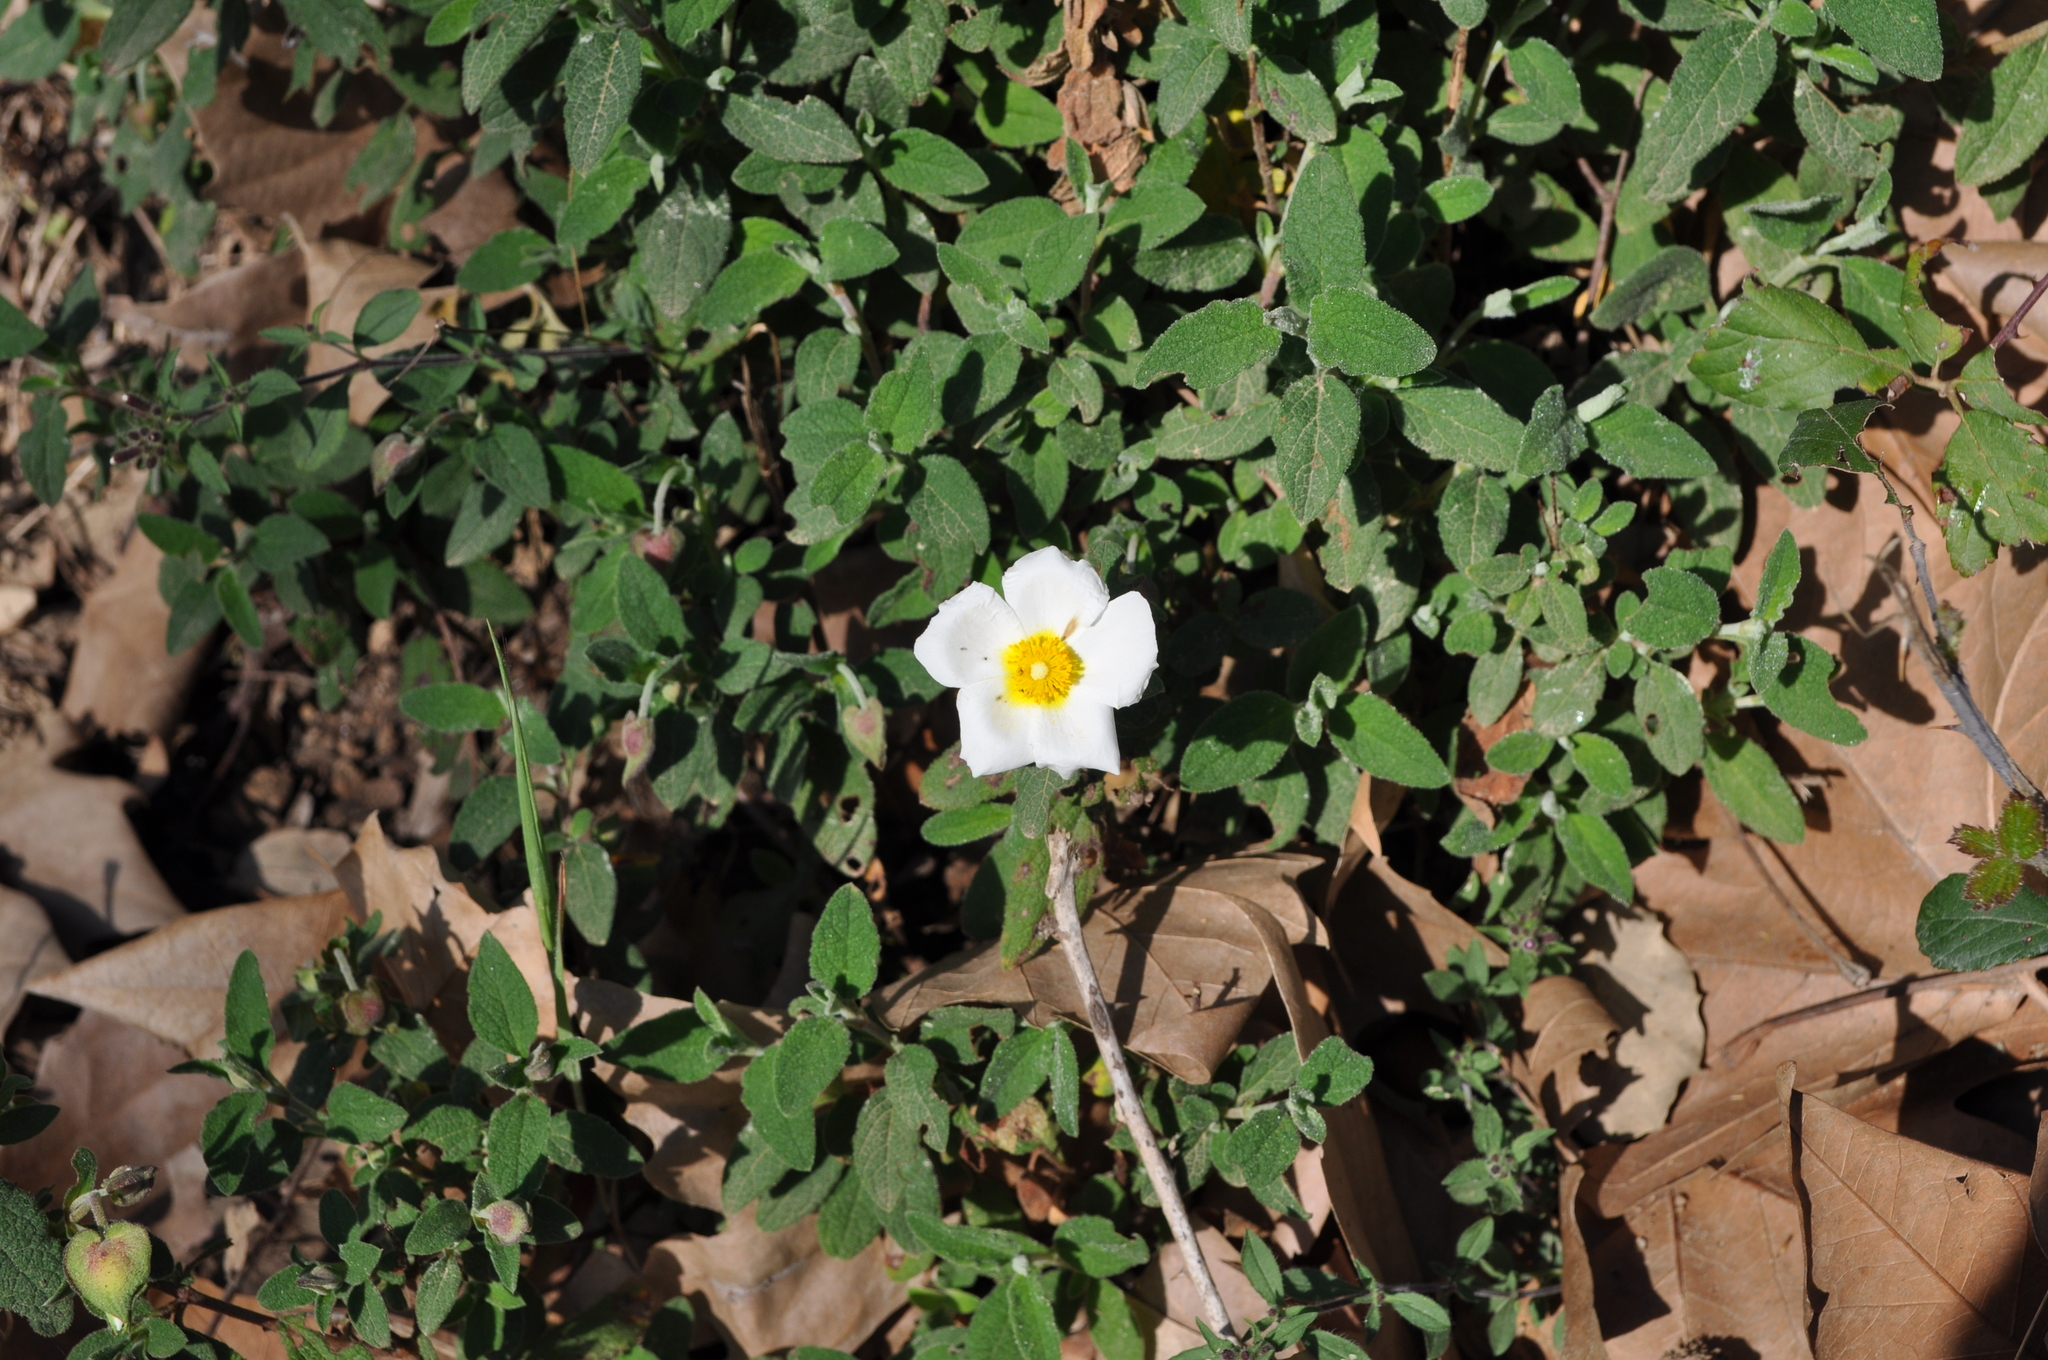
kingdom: Plantae
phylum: Tracheophyta
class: Magnoliopsida
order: Malvales
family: Cistaceae
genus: Cistus
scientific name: Cistus salviifolius
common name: Salvia cistus
